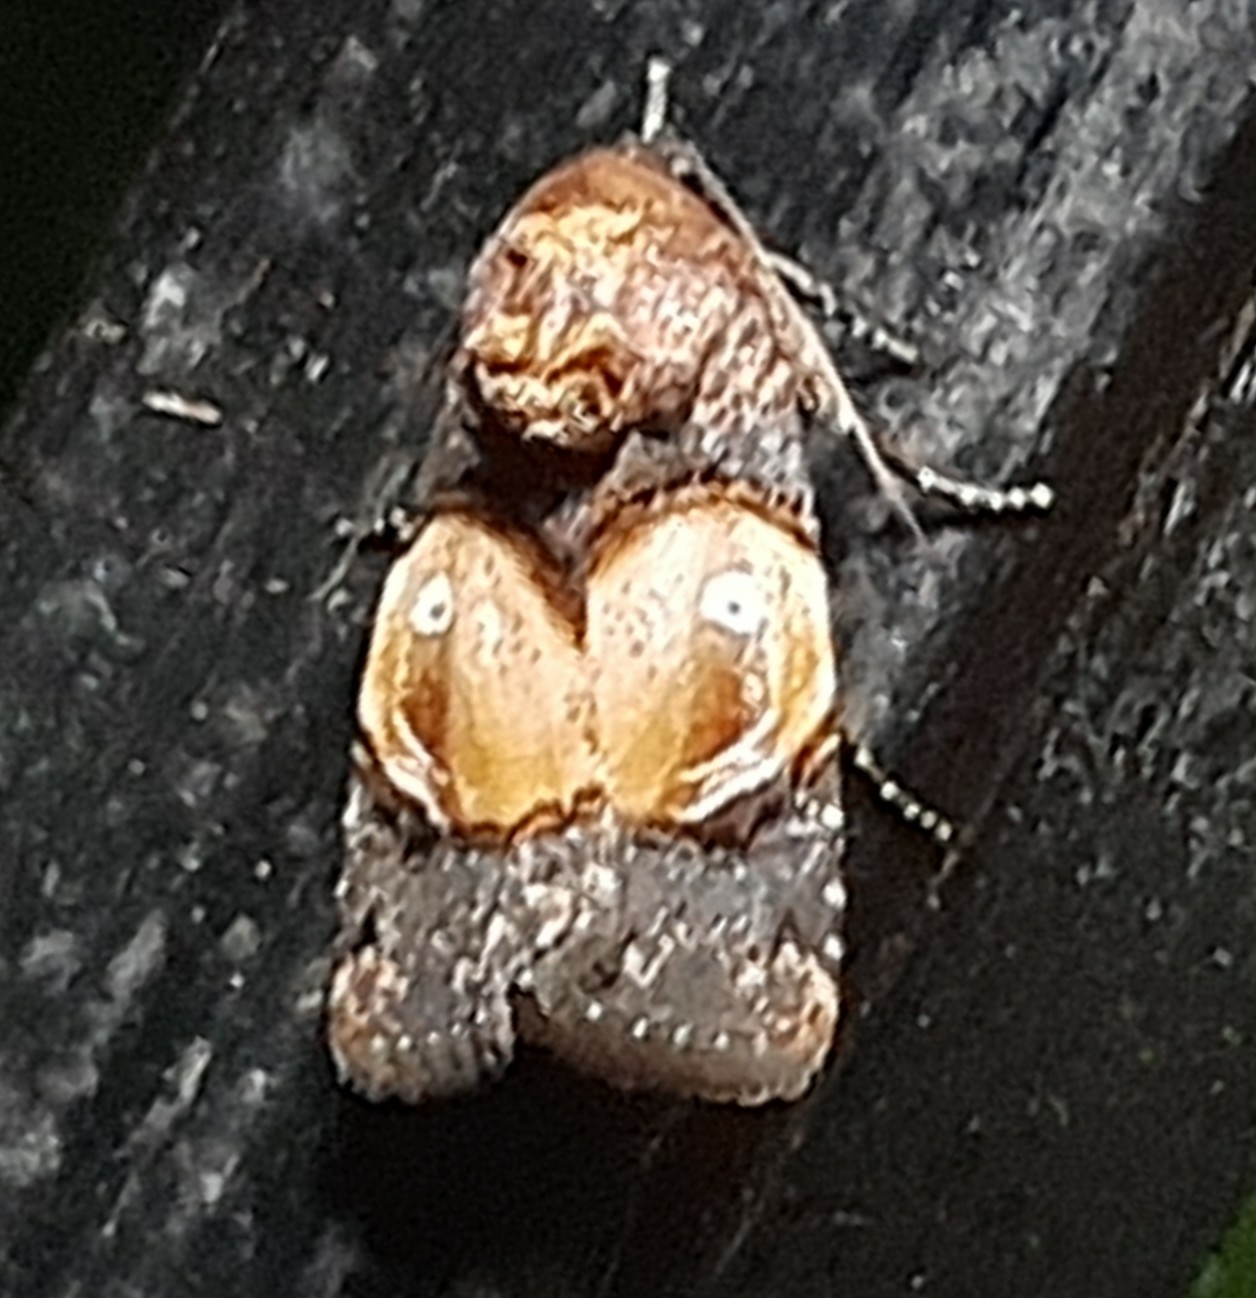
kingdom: Animalia
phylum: Arthropoda
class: Insecta
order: Lepidoptera
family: Noctuidae
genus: Hampsonodes
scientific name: Hampsonodes orbica
